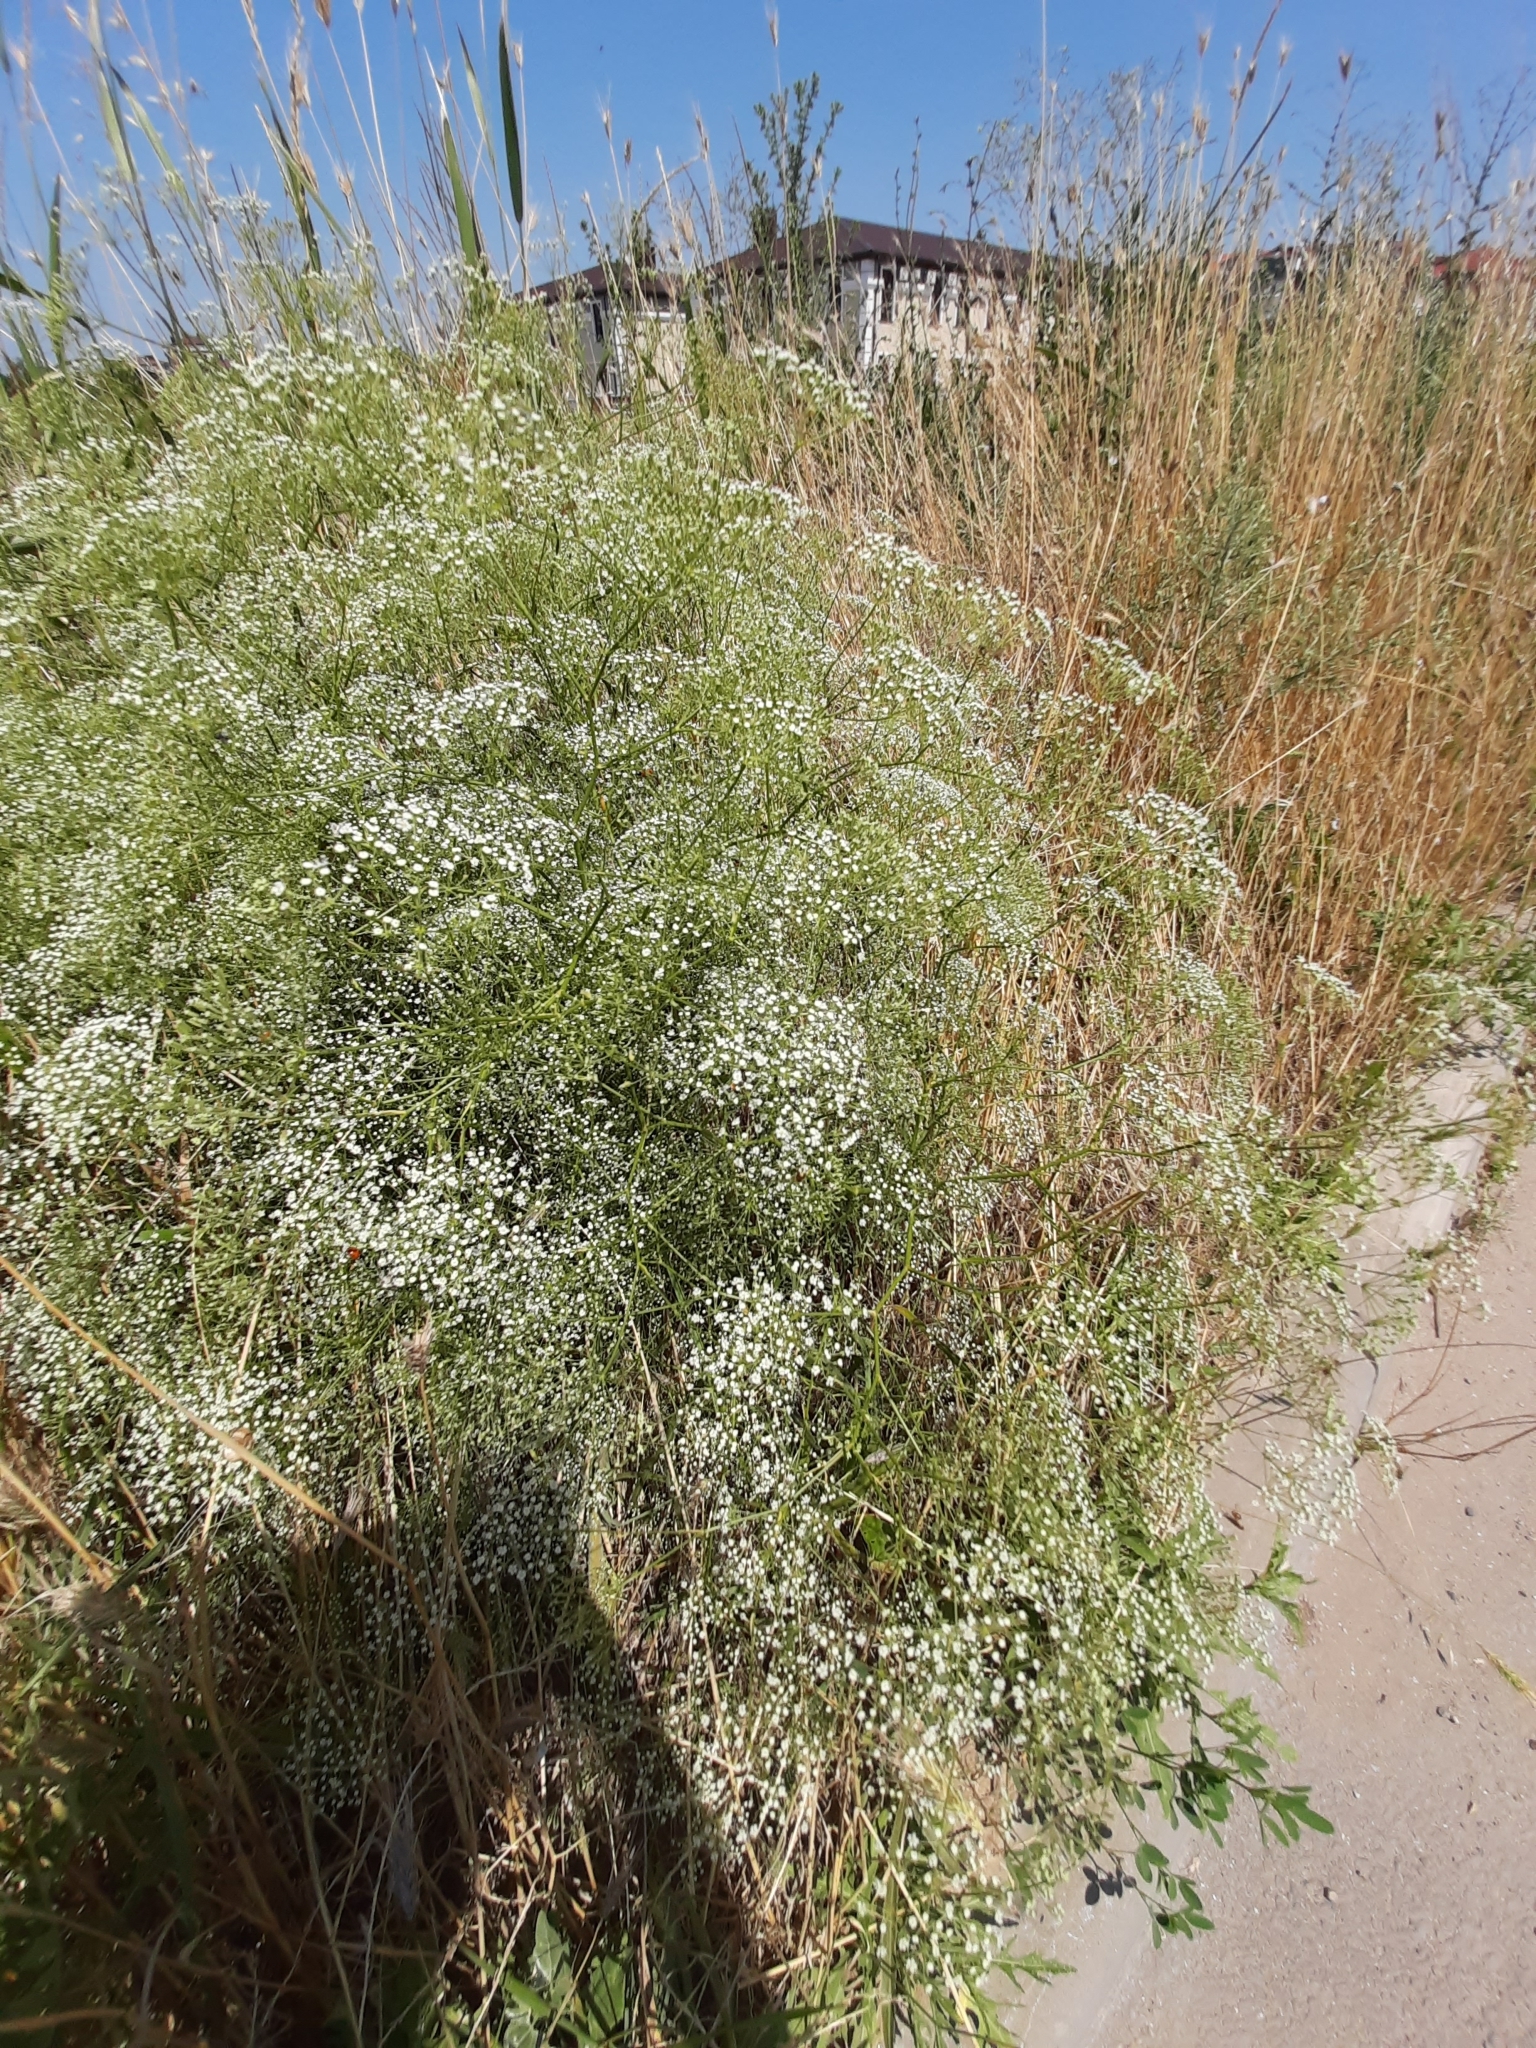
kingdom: Plantae
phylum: Tracheophyta
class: Magnoliopsida
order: Apiales
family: Apiaceae
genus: Falcaria
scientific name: Falcaria vulgaris
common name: Longleaf
